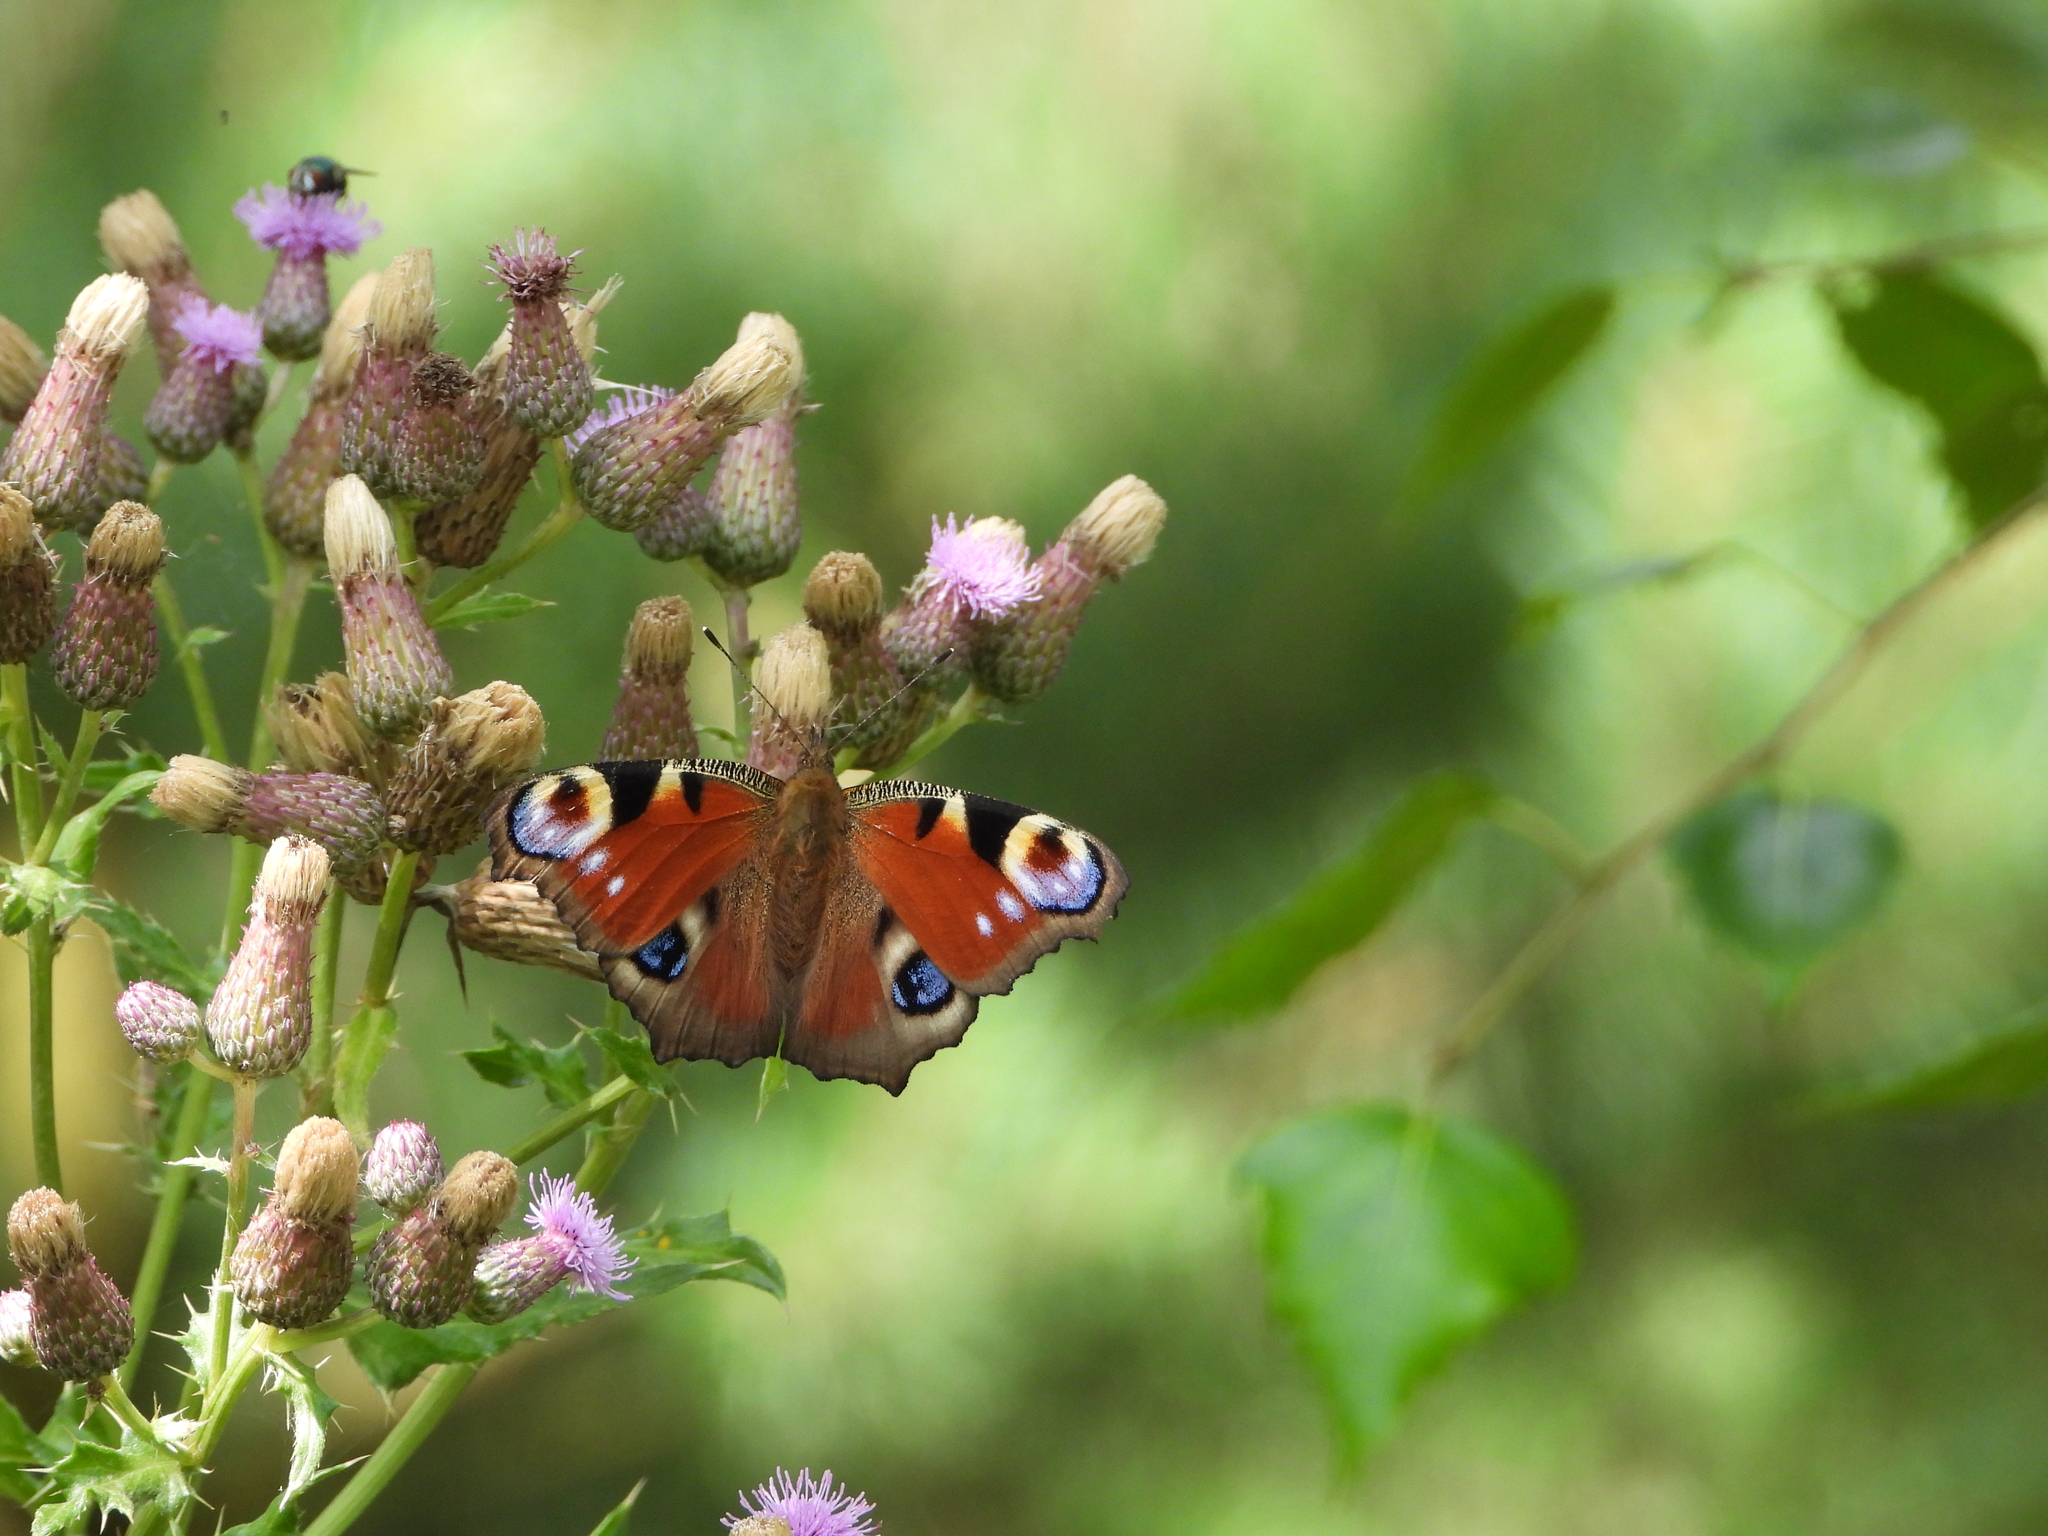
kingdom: Animalia
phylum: Arthropoda
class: Insecta
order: Lepidoptera
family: Nymphalidae
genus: Aglais
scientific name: Aglais io
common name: Peacock
